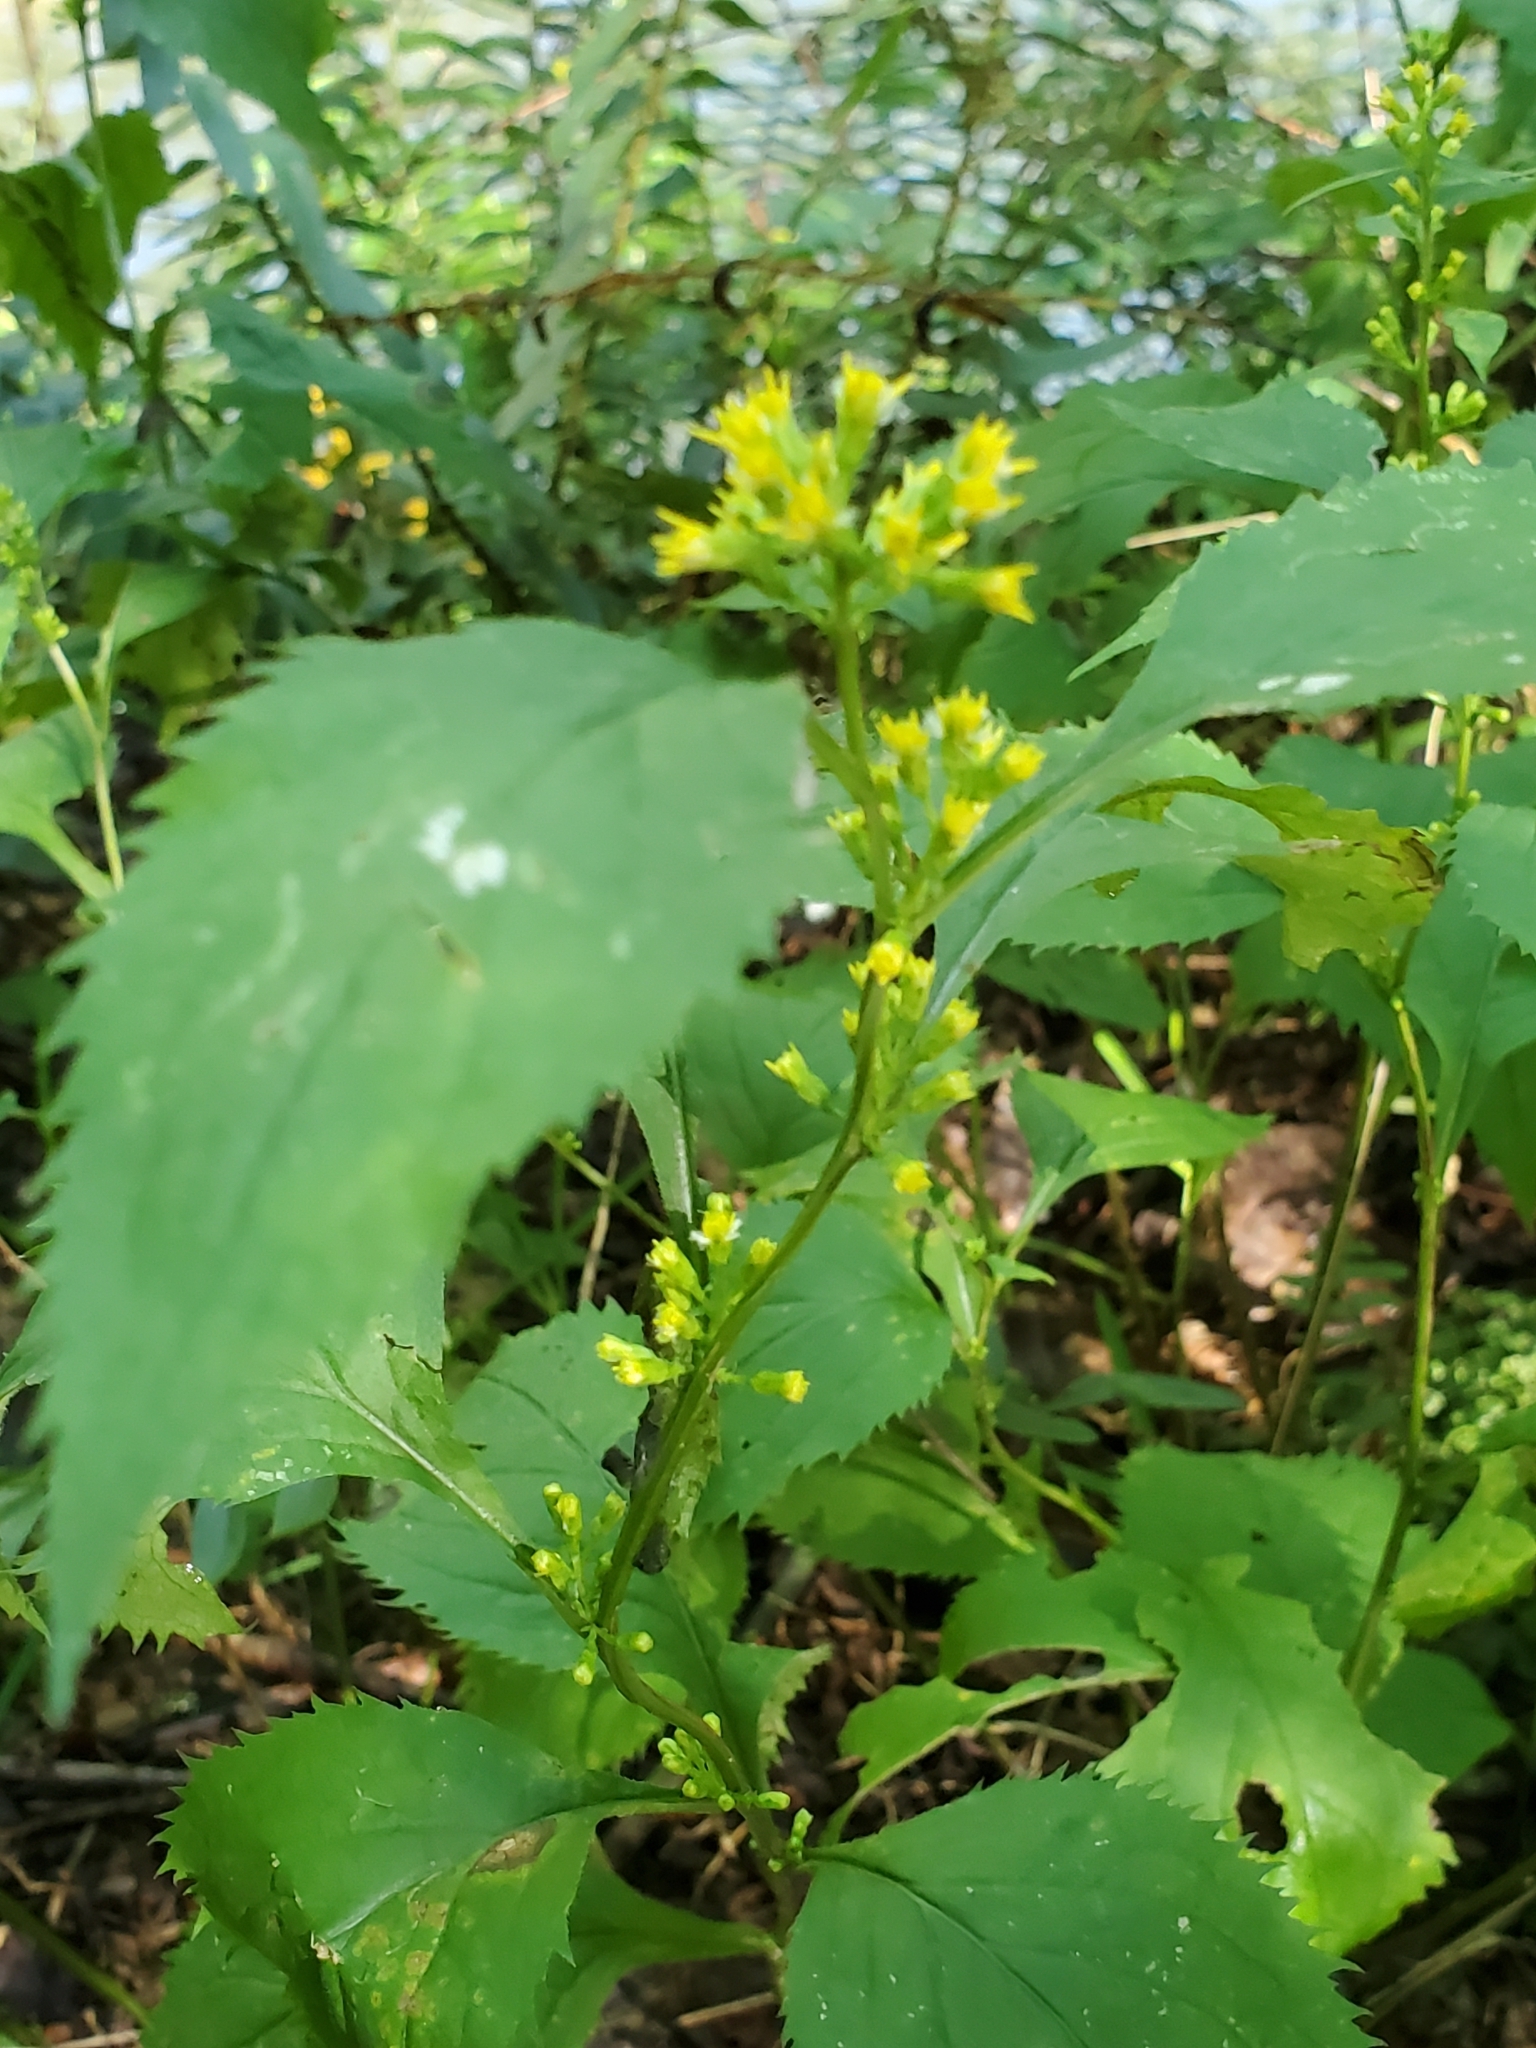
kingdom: Plantae
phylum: Tracheophyta
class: Magnoliopsida
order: Asterales
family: Asteraceae
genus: Solidago
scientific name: Solidago flexicaulis
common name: Zig-zag goldenrod
